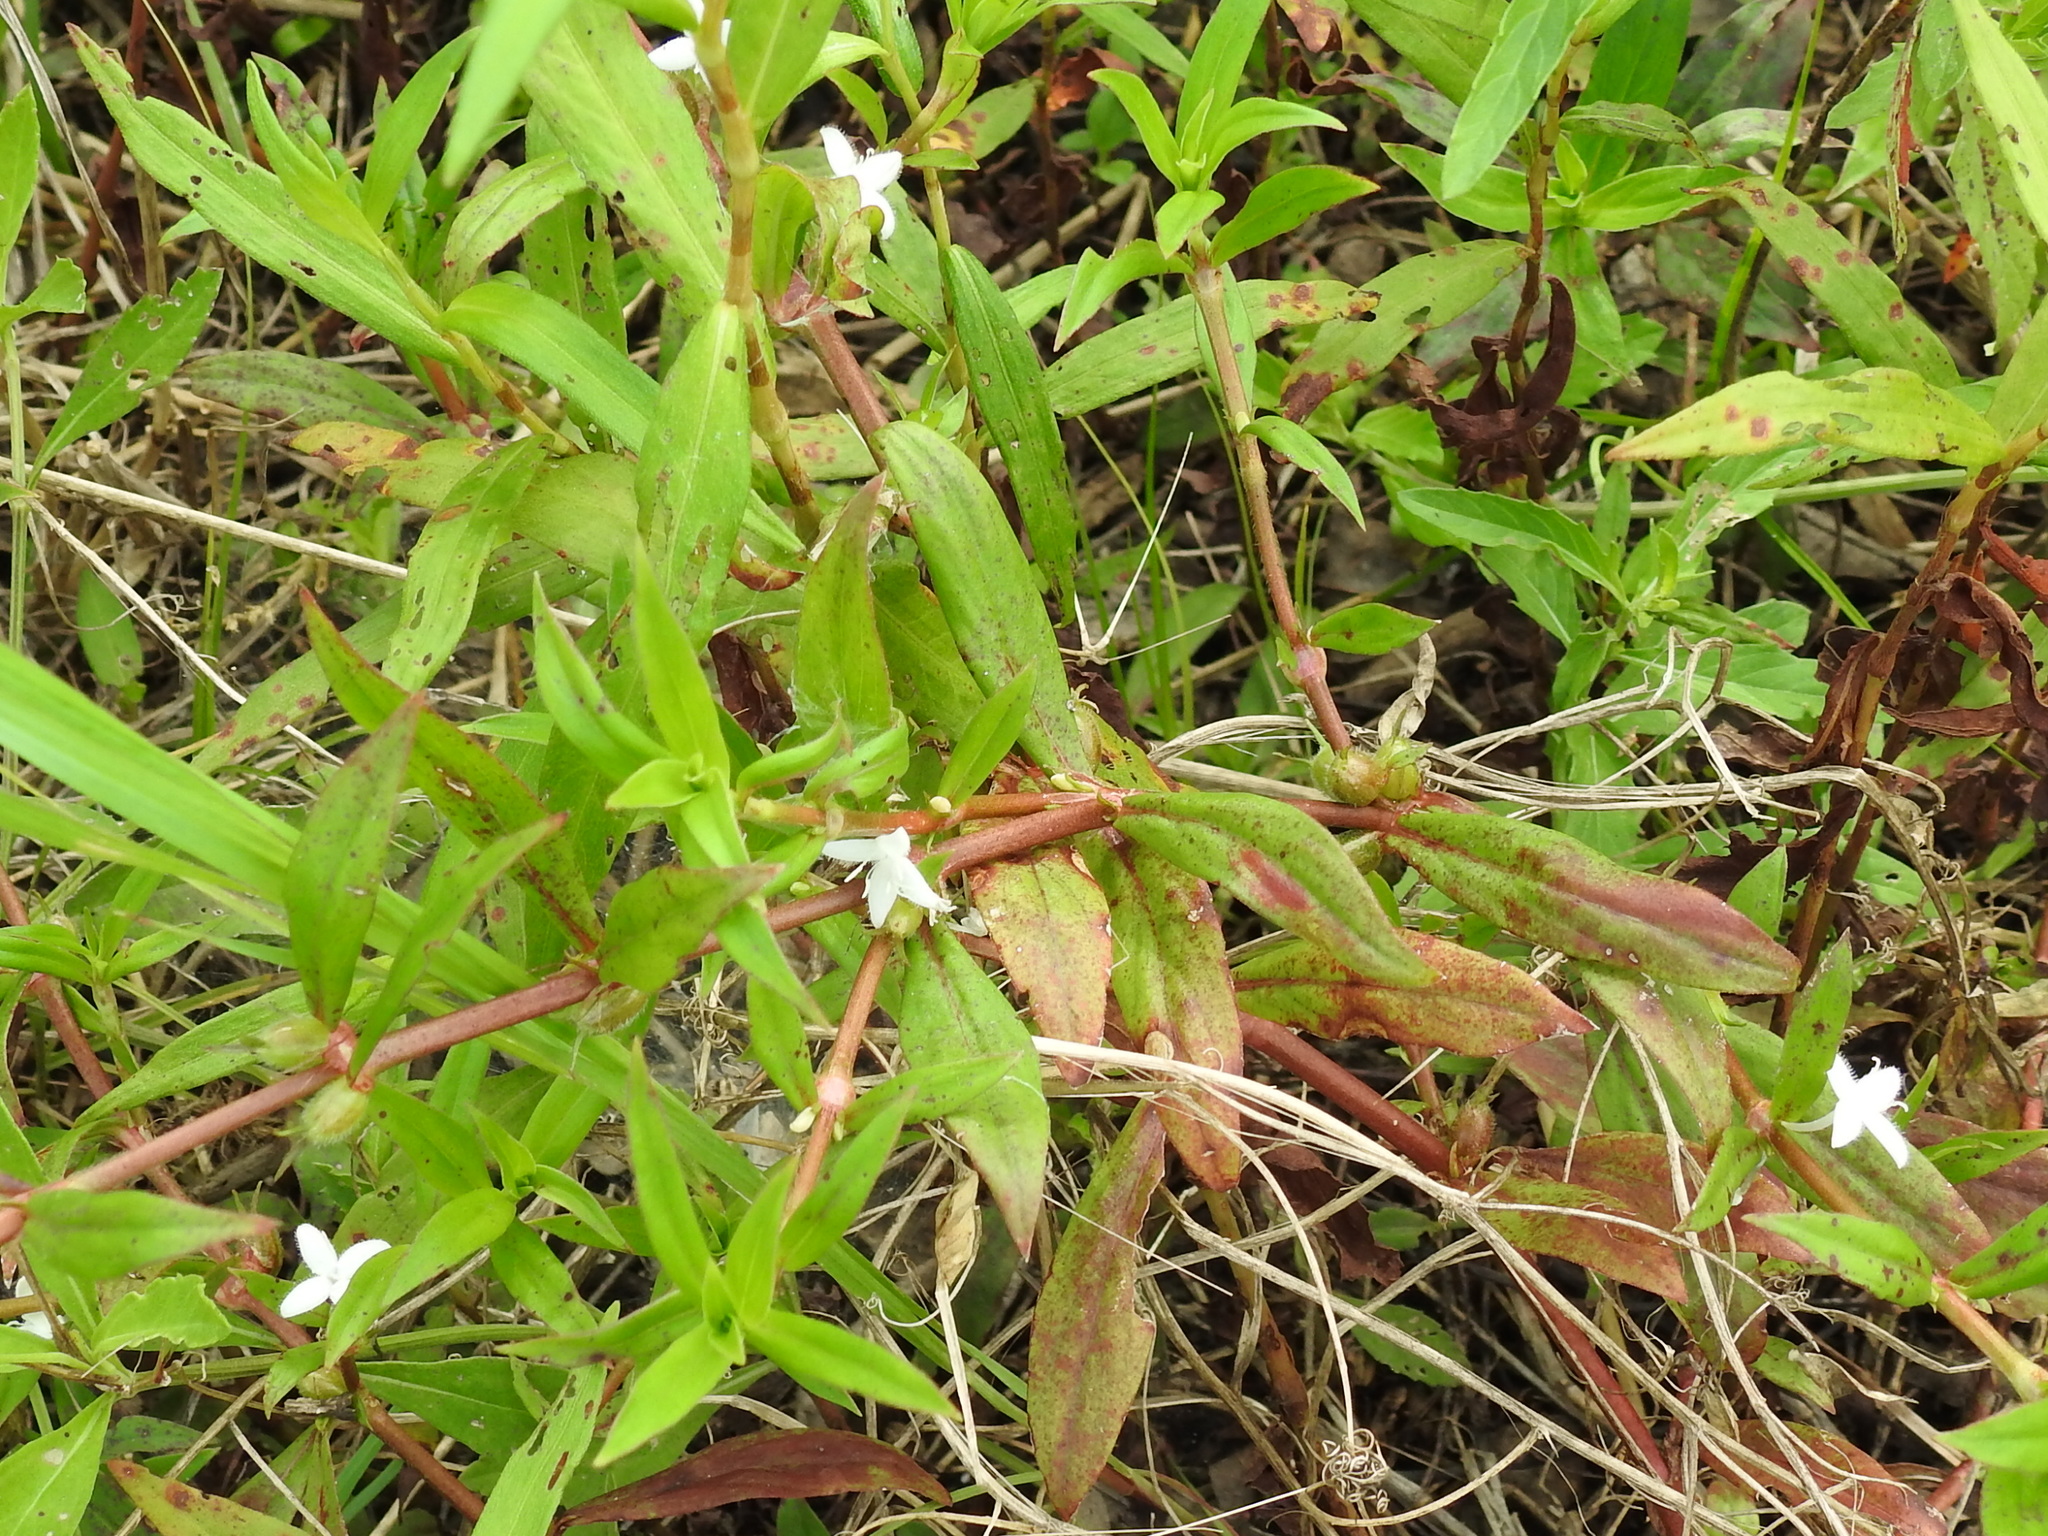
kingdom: Plantae
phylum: Tracheophyta
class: Magnoliopsida
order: Gentianales
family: Rubiaceae
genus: Diodia
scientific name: Diodia virginiana
